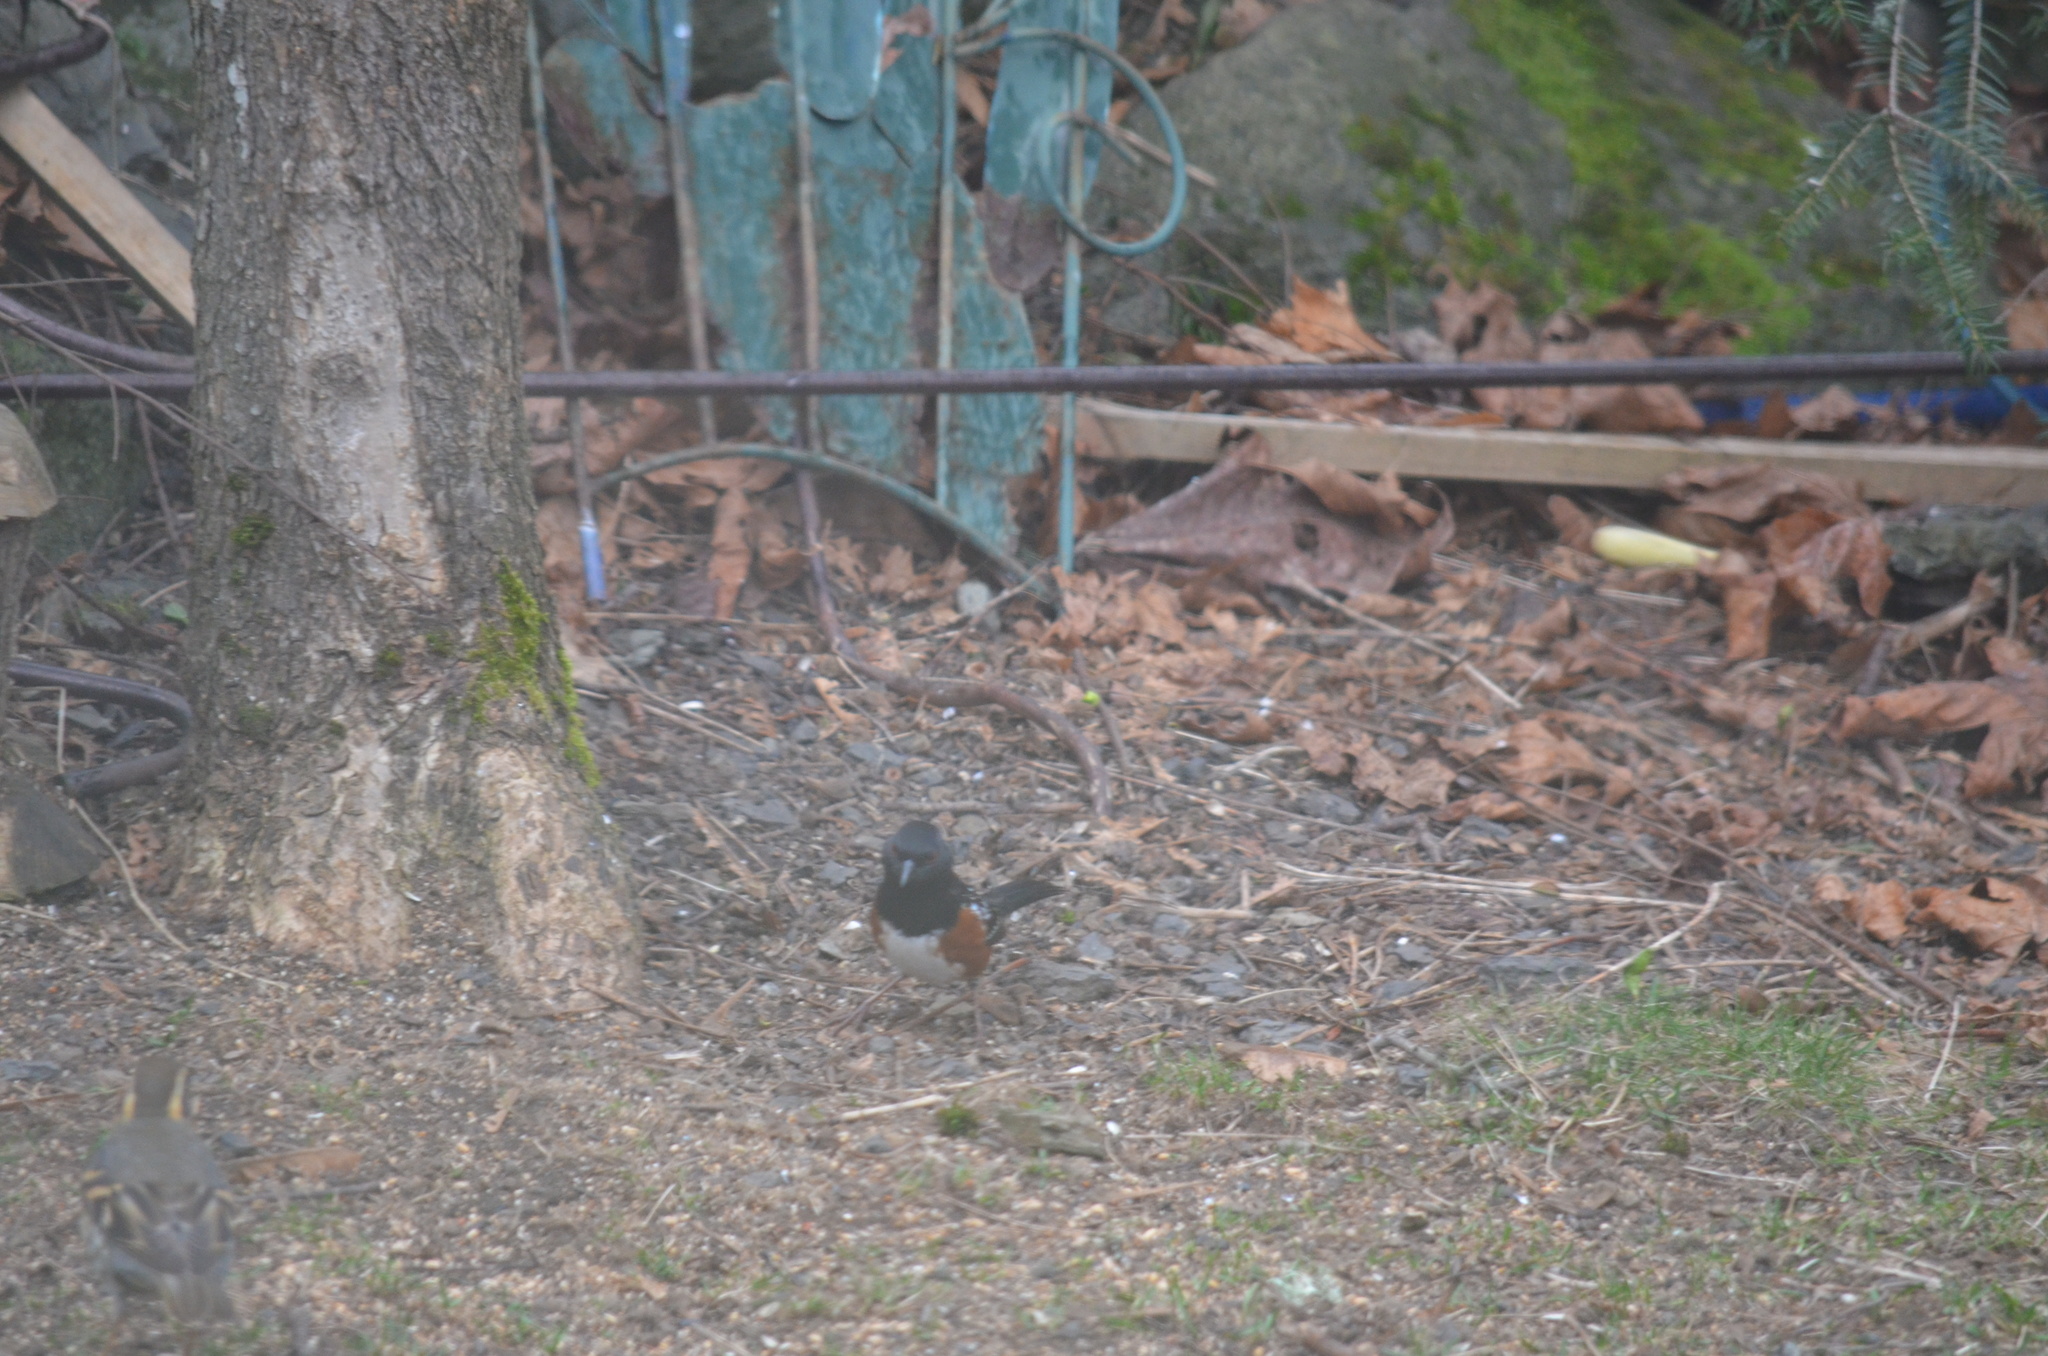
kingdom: Animalia
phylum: Chordata
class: Aves
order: Passeriformes
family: Passerellidae
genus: Pipilo
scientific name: Pipilo maculatus
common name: Spotted towhee
